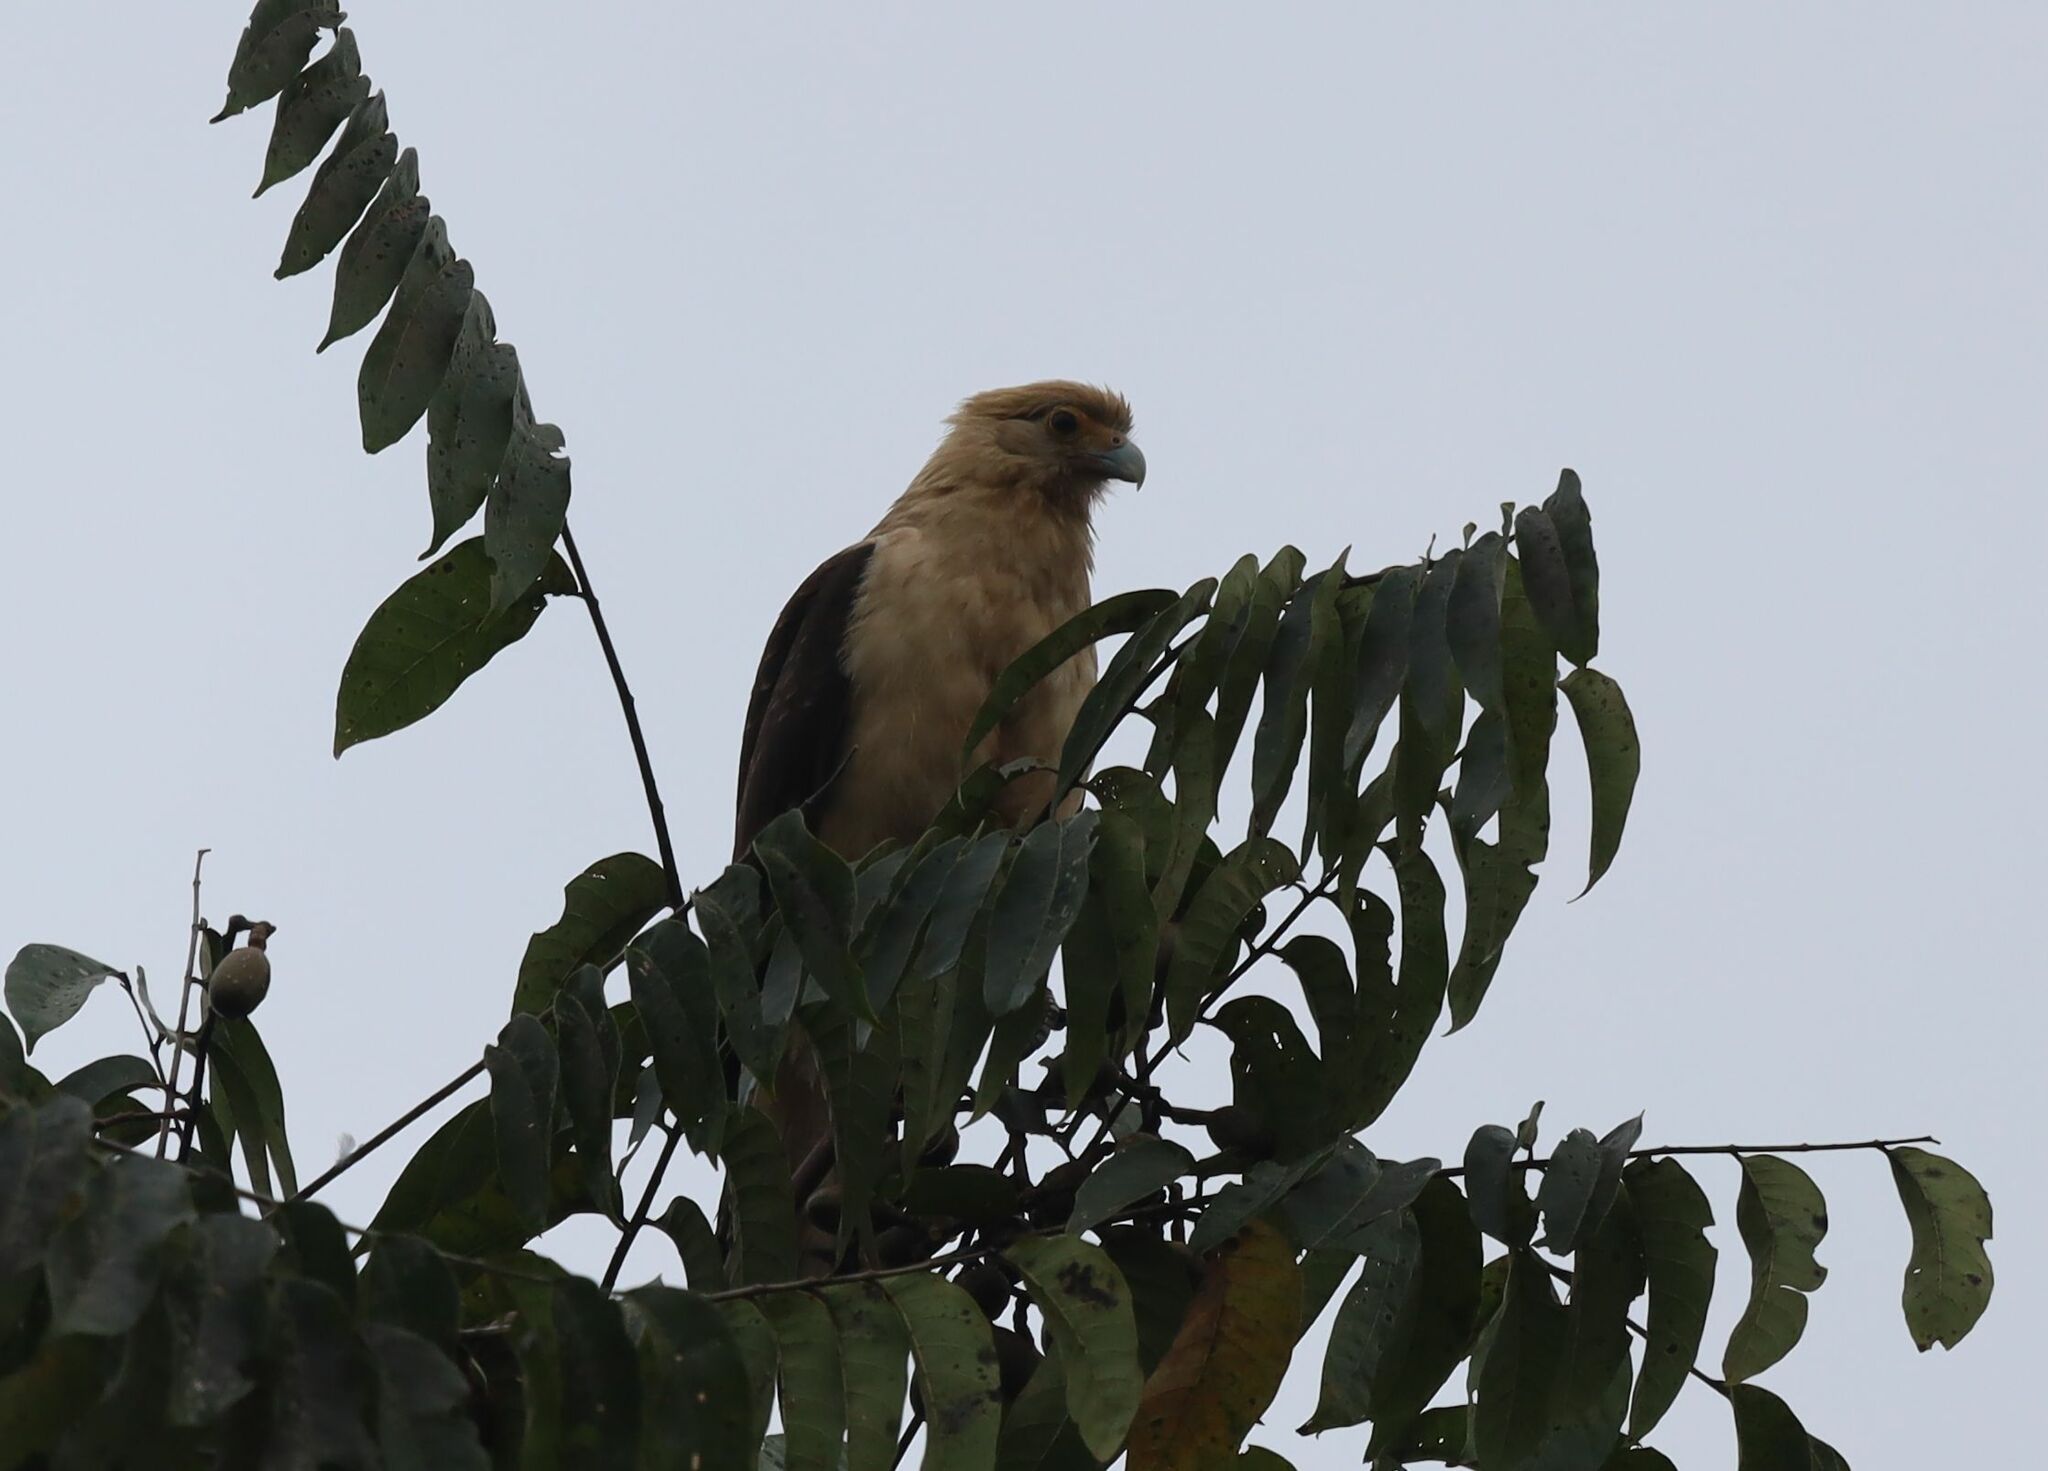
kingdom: Animalia
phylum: Chordata
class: Aves
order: Falconiformes
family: Falconidae
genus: Daptrius
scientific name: Daptrius
